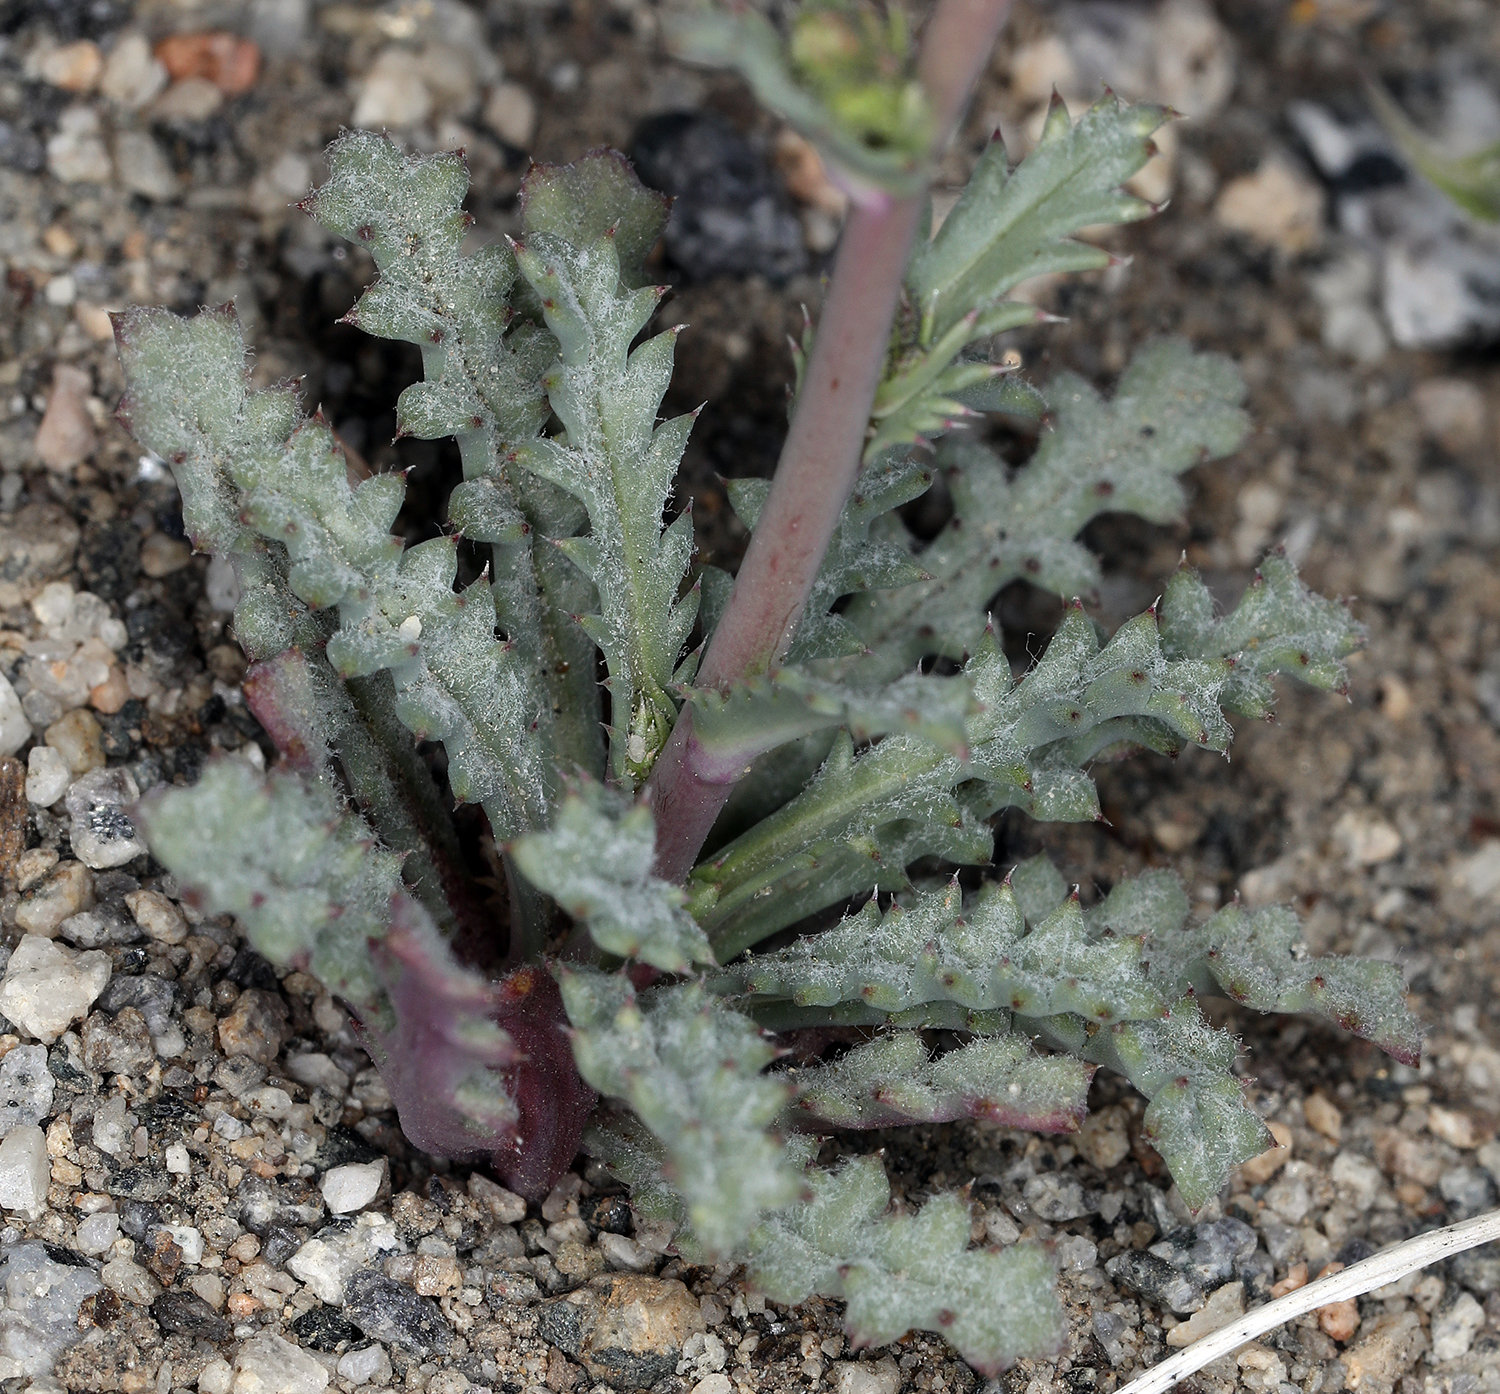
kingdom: Plantae
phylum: Tracheophyta
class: Magnoliopsida
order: Ericales
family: Polemoniaceae
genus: Gilia
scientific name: Gilia sinuata
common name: Rosy gilia
